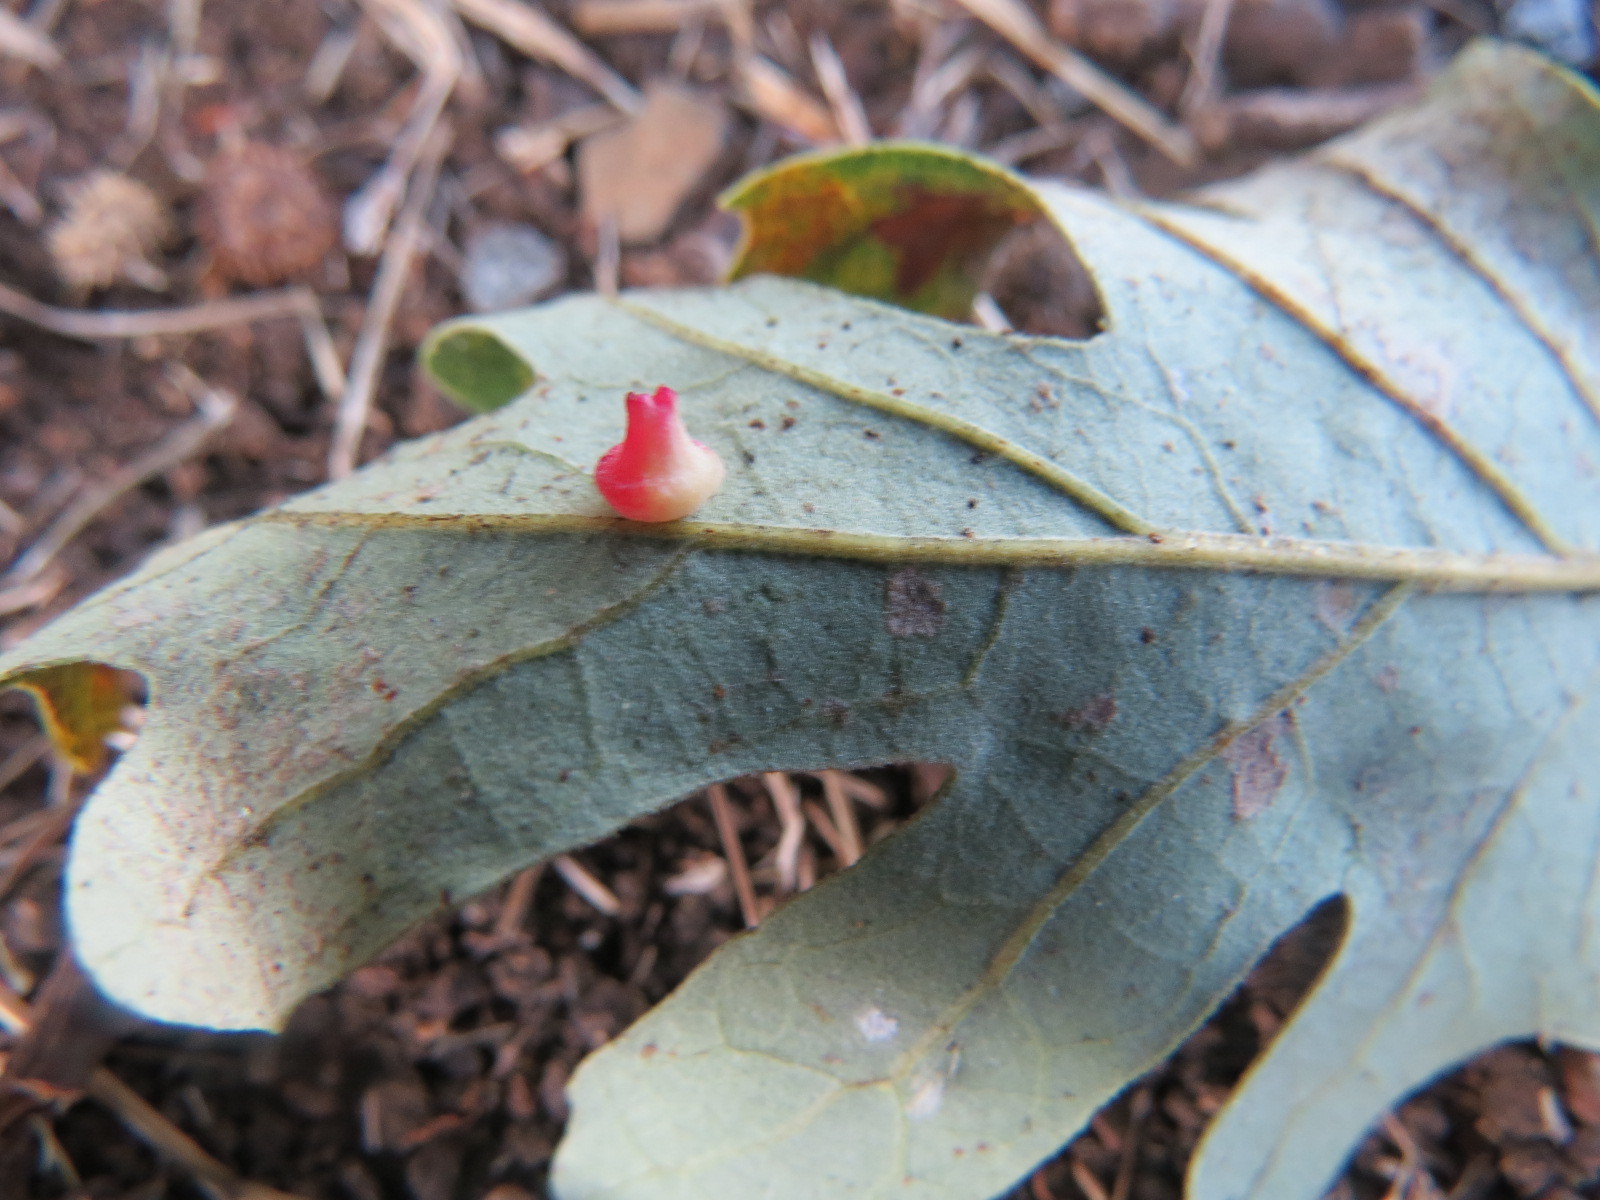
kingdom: Animalia
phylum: Arthropoda
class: Insecta
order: Hymenoptera
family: Cynipidae
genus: Andricus
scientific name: Andricus
